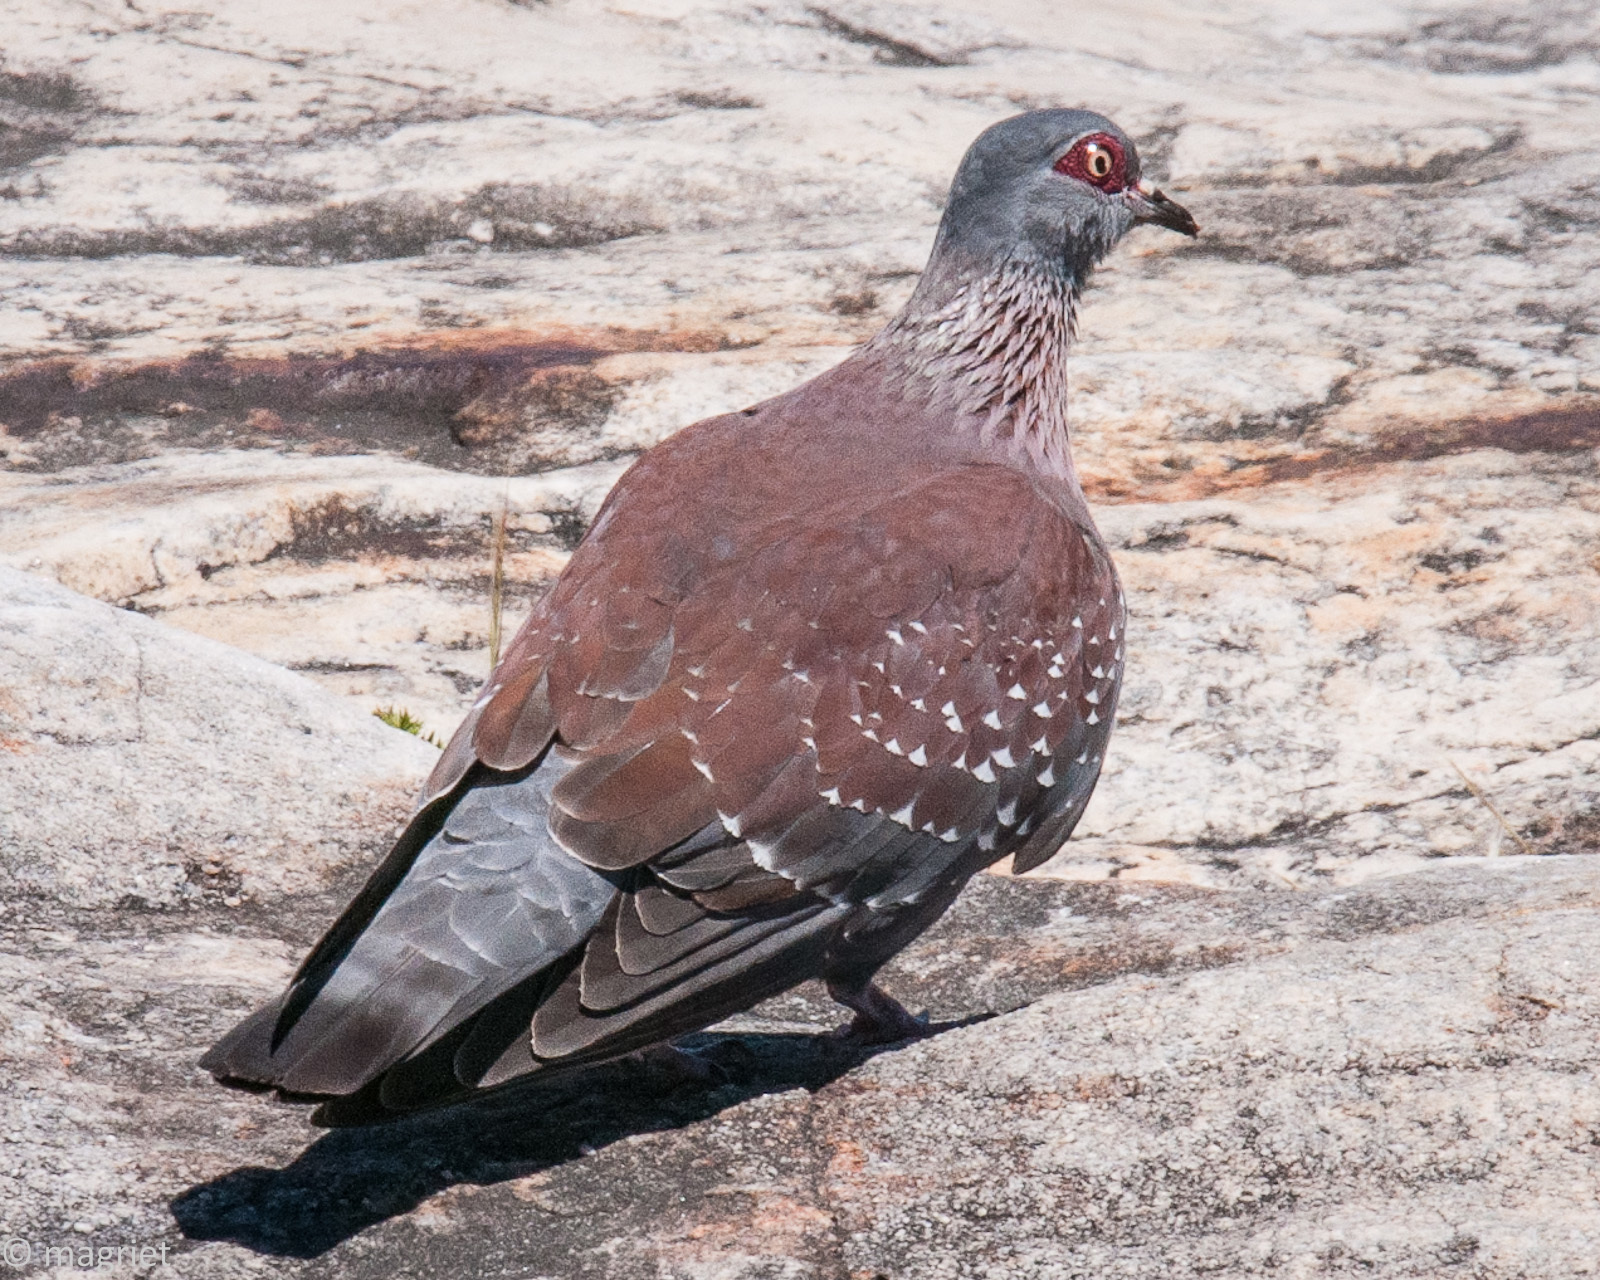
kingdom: Animalia
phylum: Chordata
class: Aves
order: Columbiformes
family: Columbidae
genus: Columba
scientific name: Columba guinea
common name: Speckled pigeon
